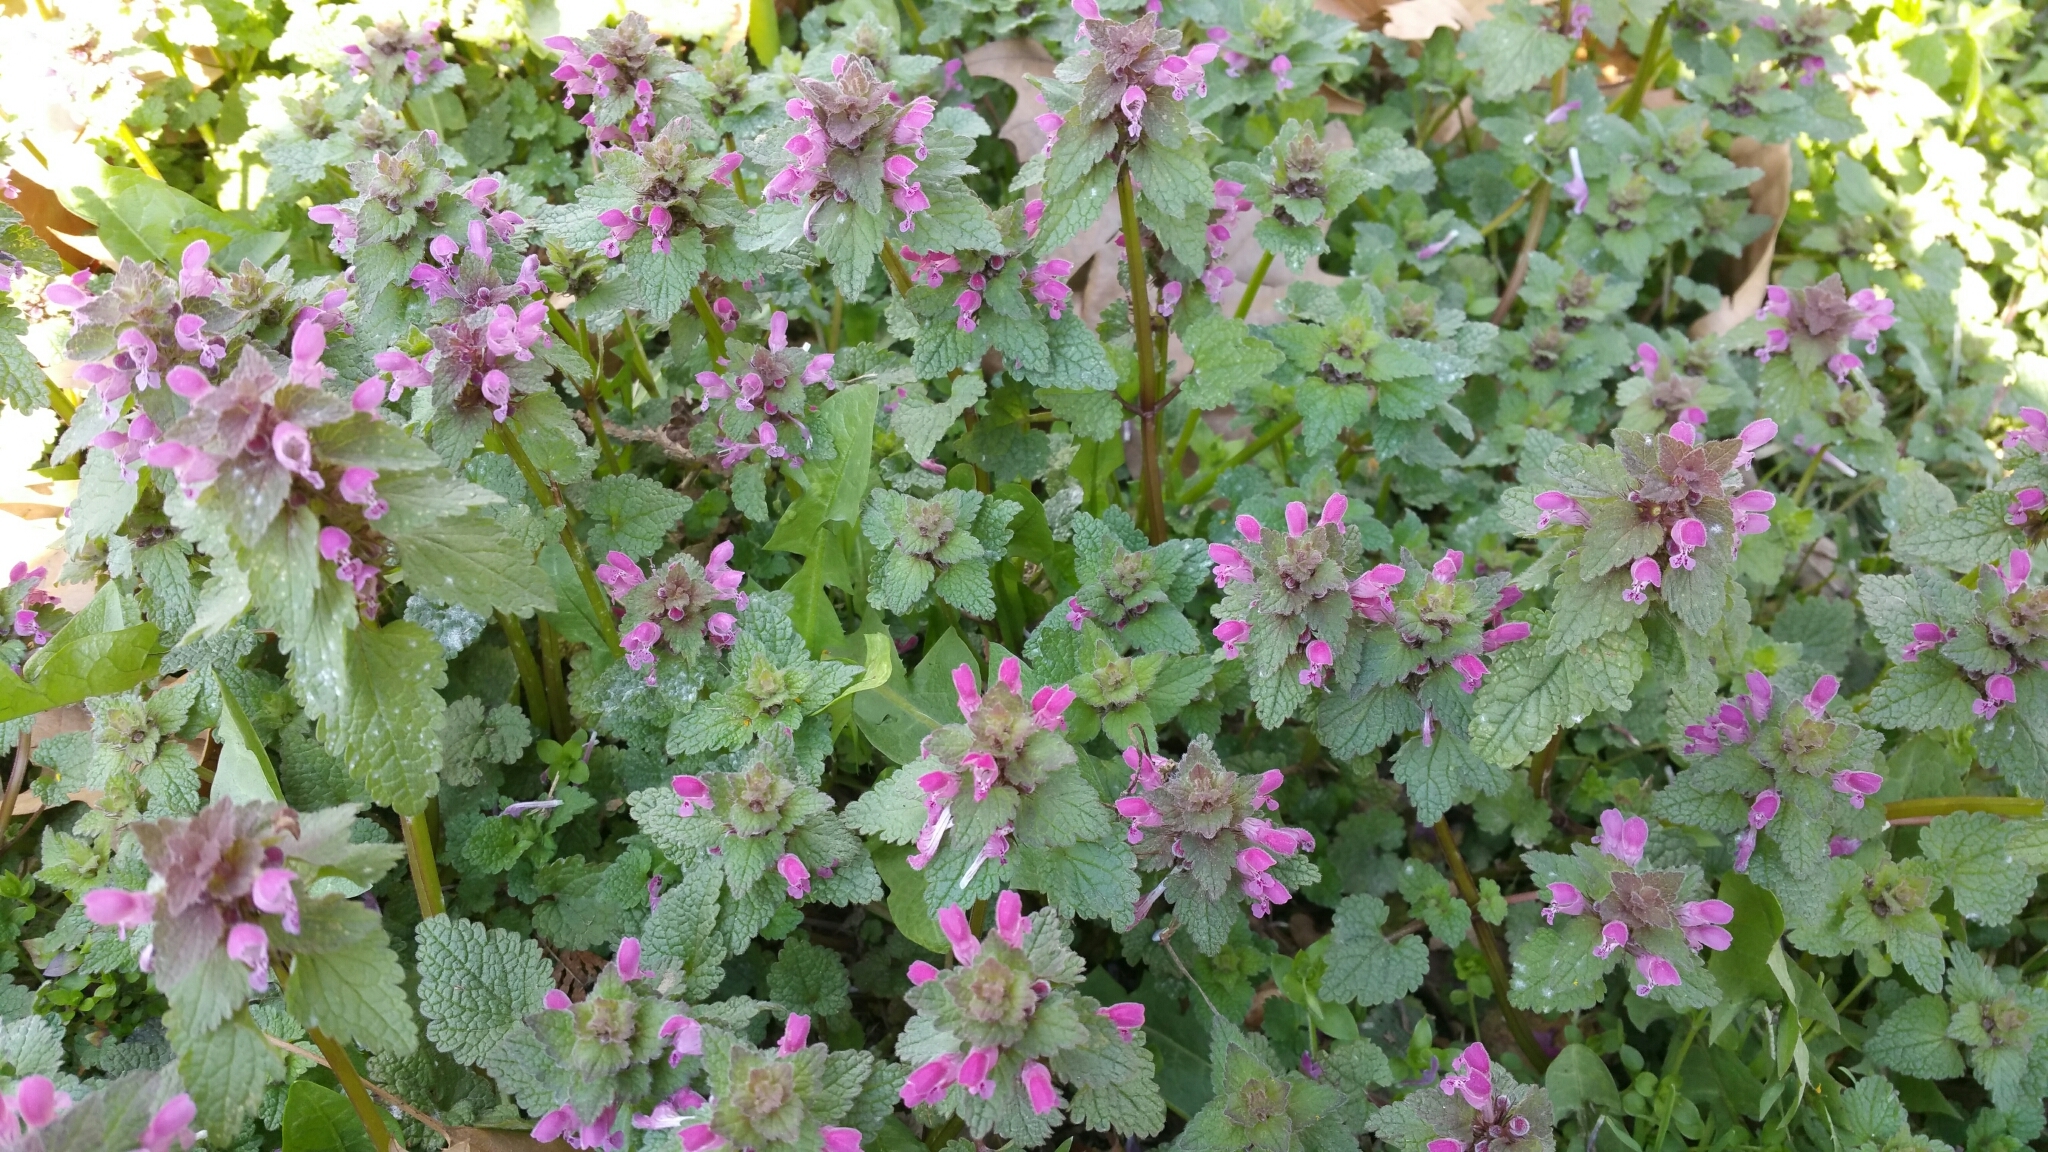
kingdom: Plantae
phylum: Tracheophyta
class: Magnoliopsida
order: Lamiales
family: Lamiaceae
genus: Lamium
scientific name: Lamium purpureum
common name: Red dead-nettle
